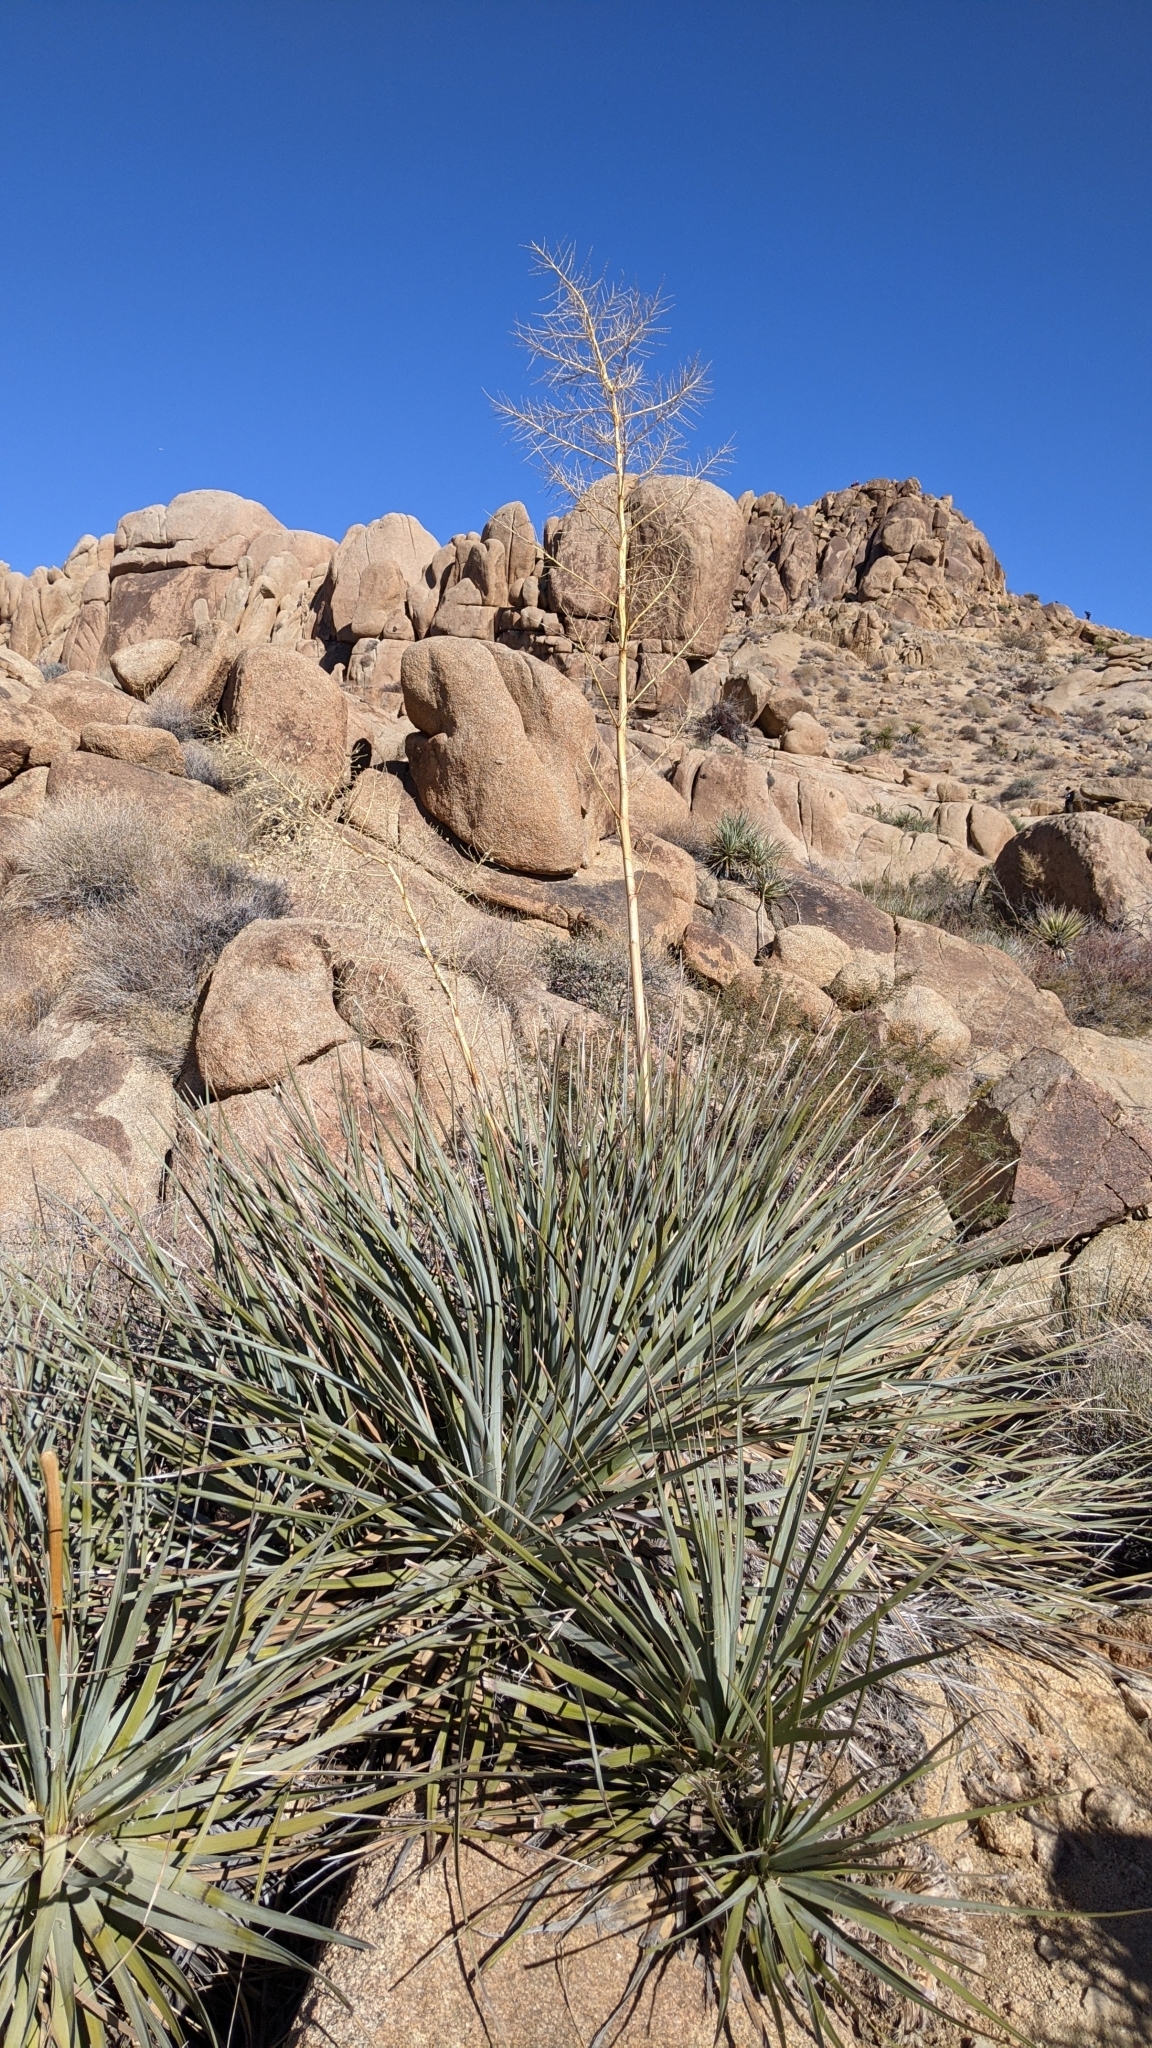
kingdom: Plantae
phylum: Tracheophyta
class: Liliopsida
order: Asparagales
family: Asparagaceae
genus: Nolina
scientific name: Nolina bigelovii
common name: Bigelow bear-grass
